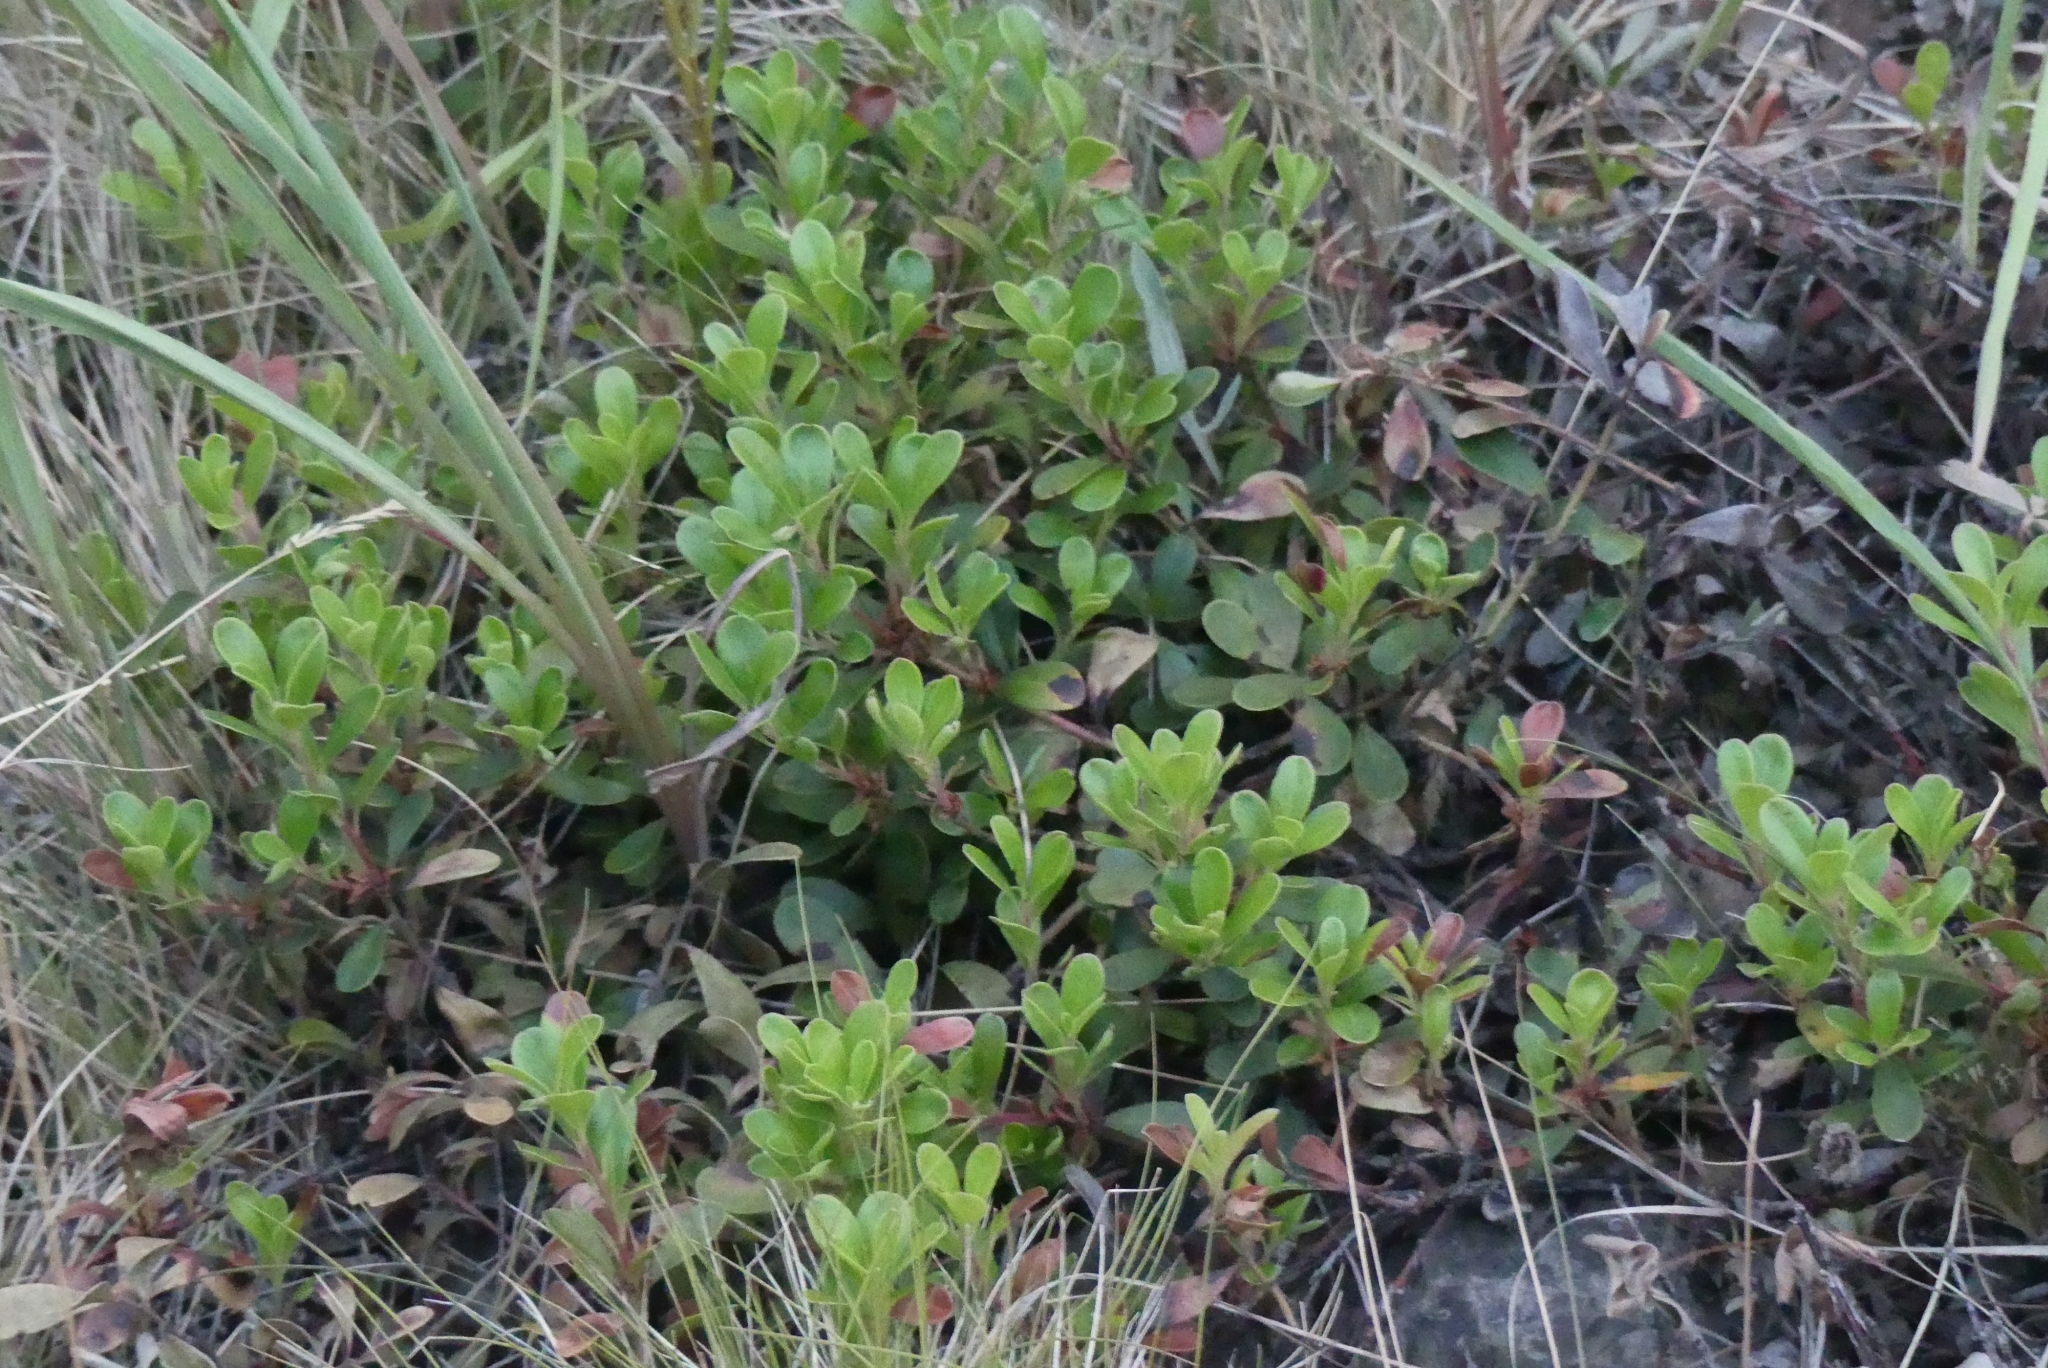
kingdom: Plantae
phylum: Tracheophyta
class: Magnoliopsida
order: Ericales
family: Ericaceae
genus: Arctostaphylos
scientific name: Arctostaphylos uva-ursi
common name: Bearberry
